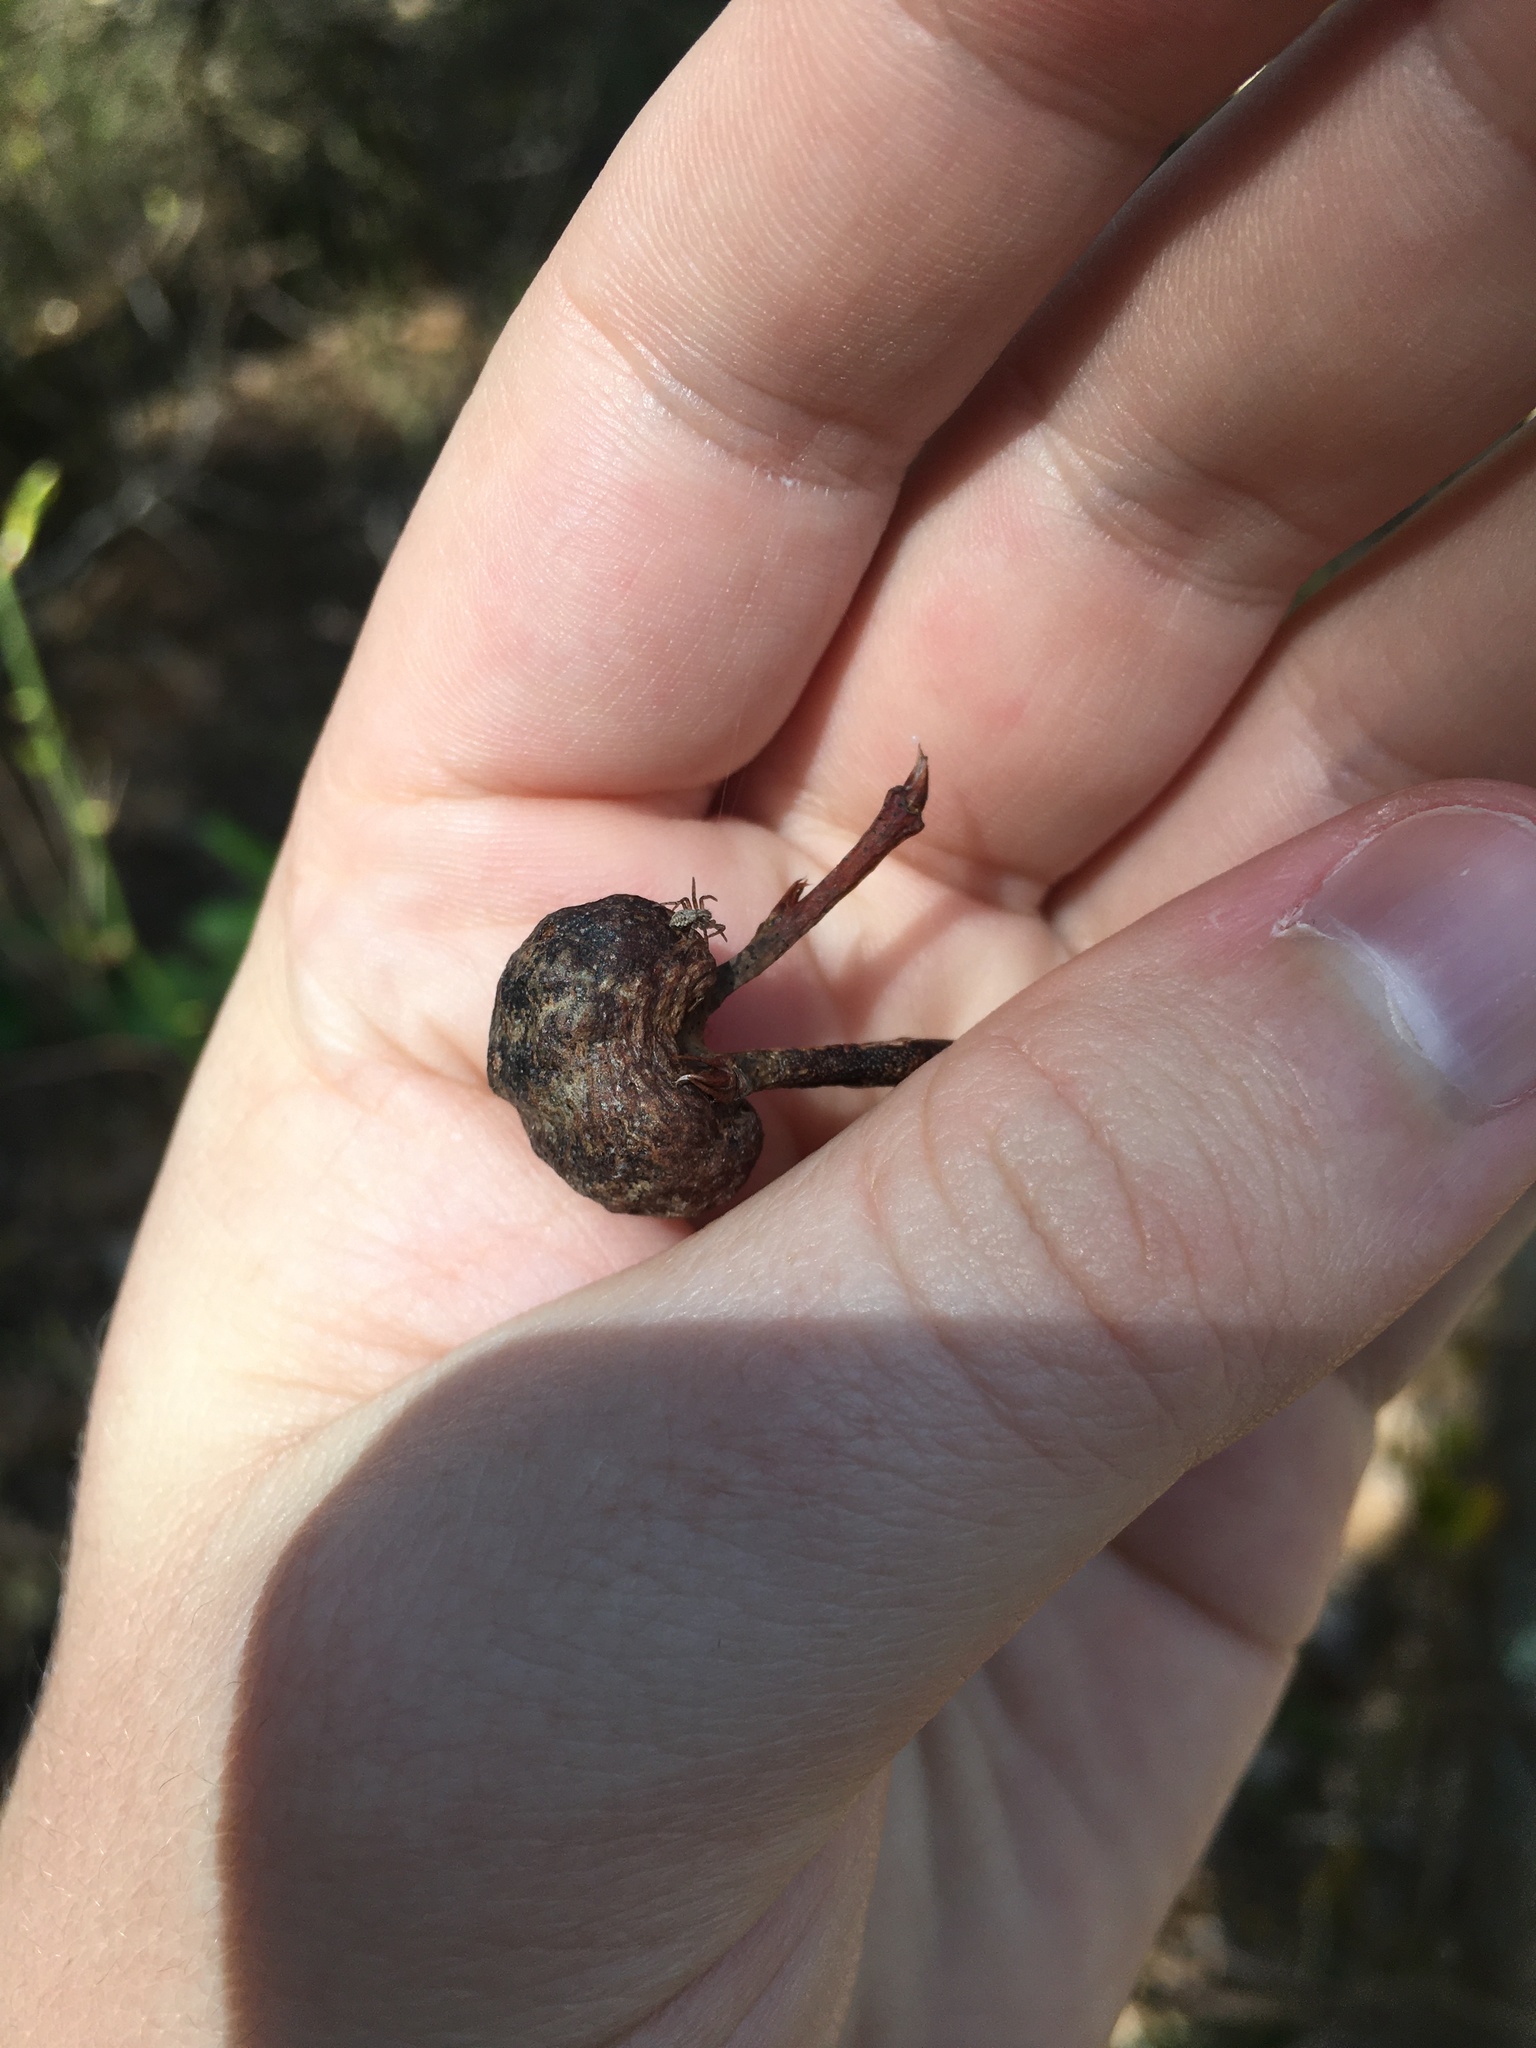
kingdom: Animalia
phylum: Arthropoda
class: Insecta
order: Hymenoptera
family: Pteromalidae
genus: Hemadas
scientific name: Hemadas nubilipennis
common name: Blueberry stem gall wasp
